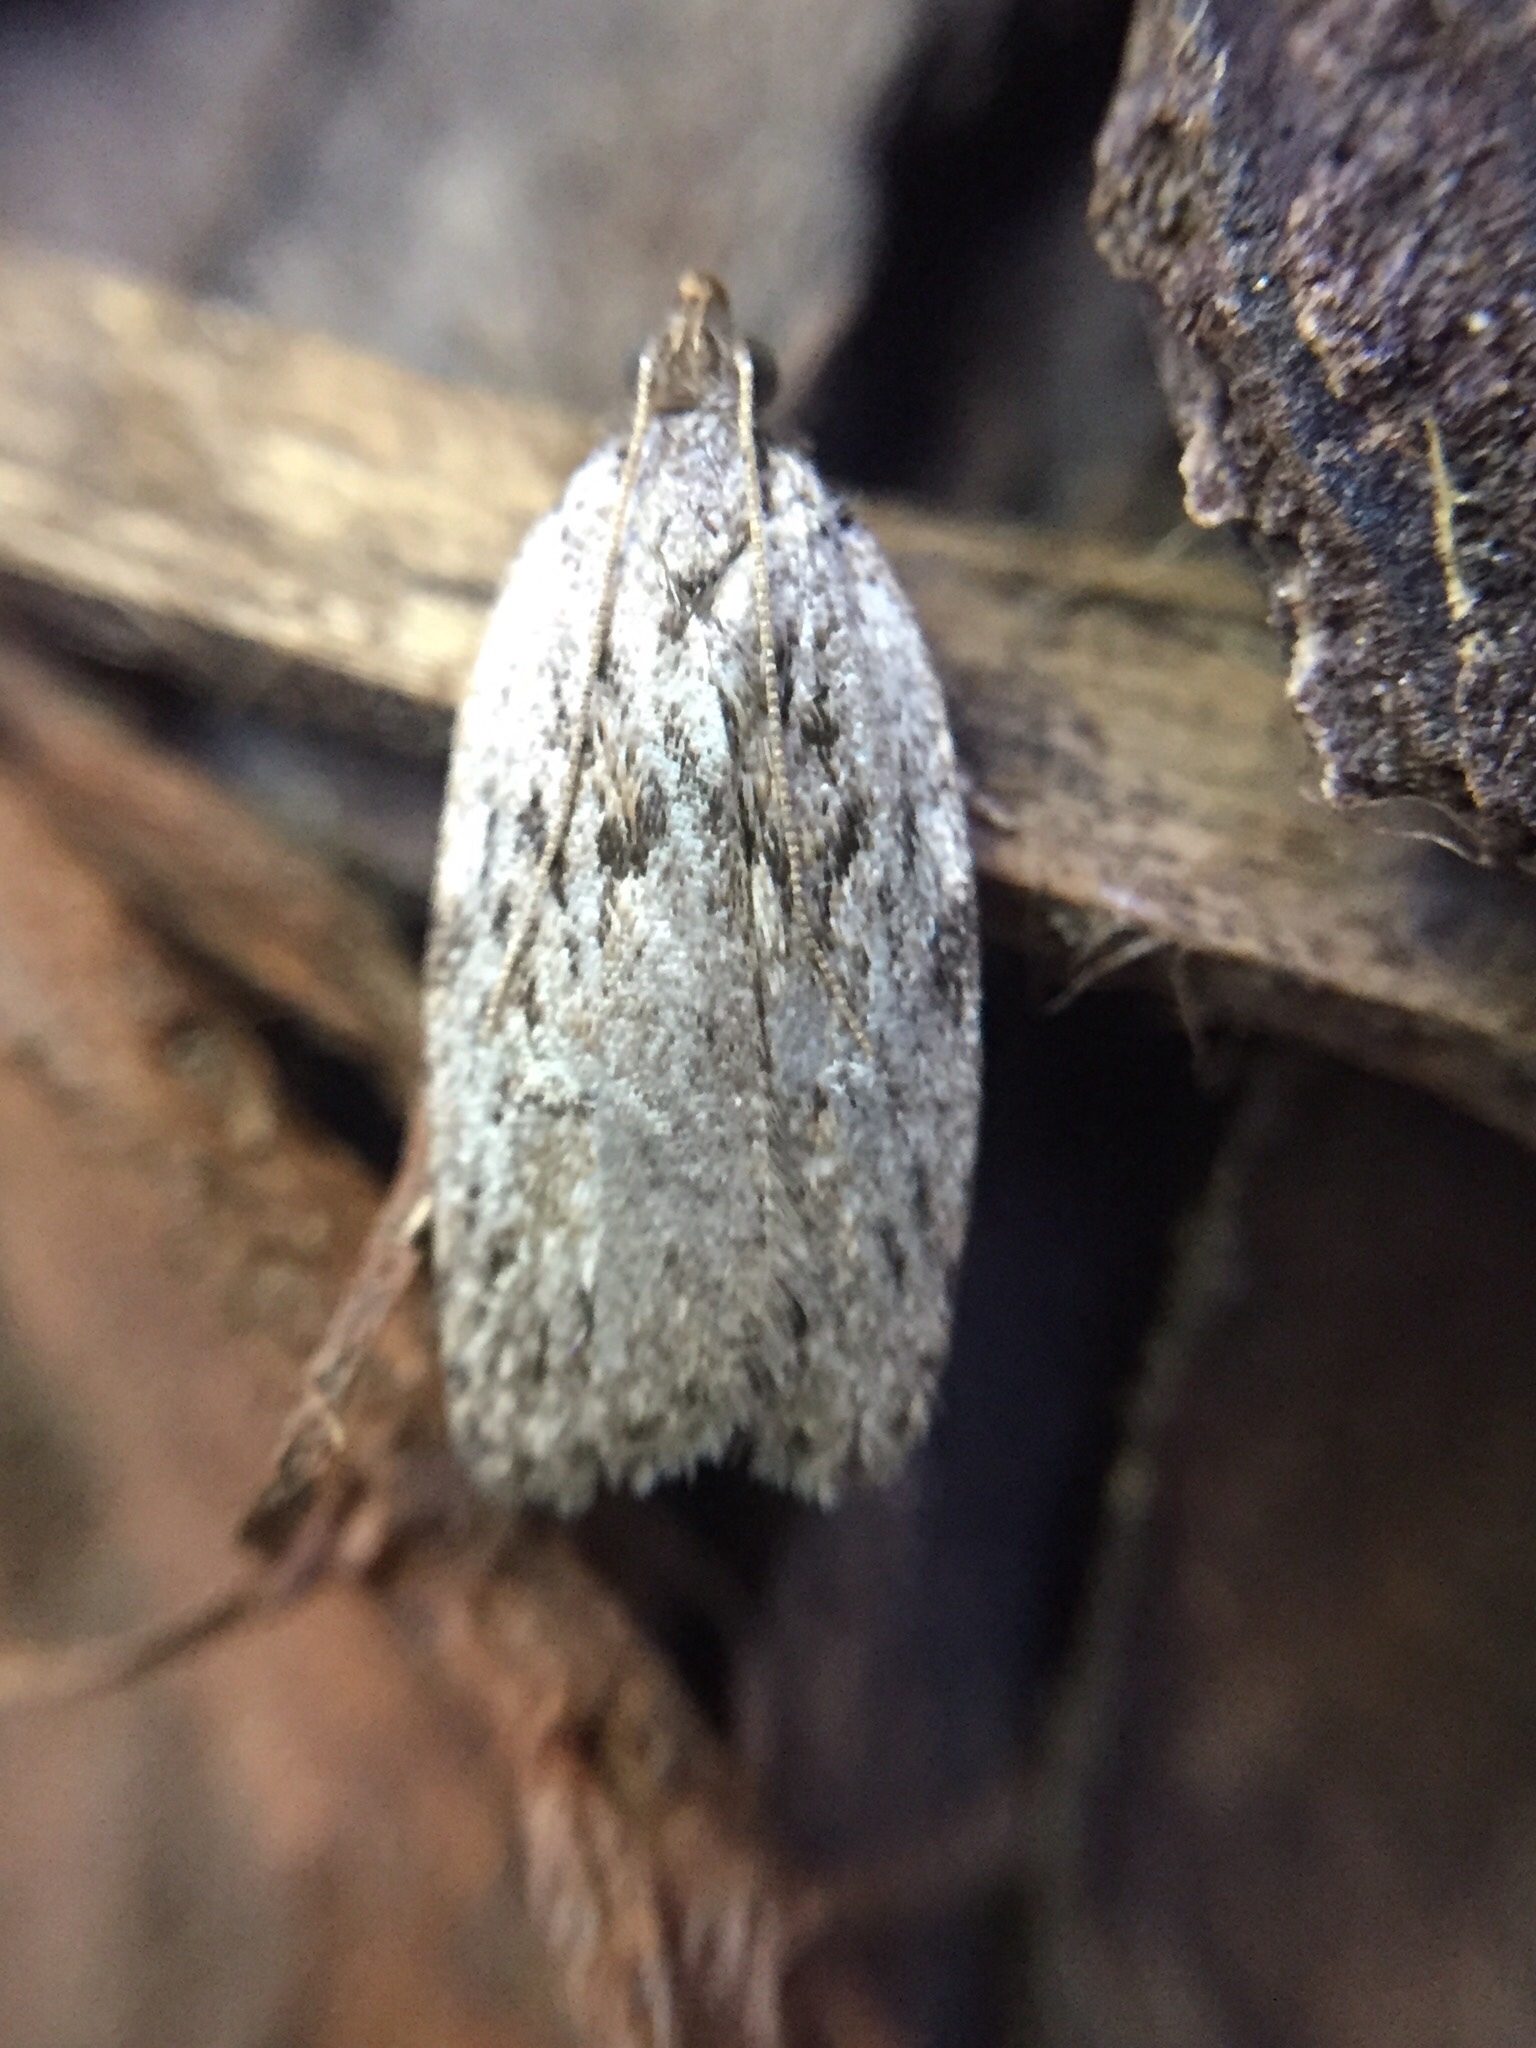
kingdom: Animalia
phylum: Arthropoda
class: Insecta
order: Lepidoptera
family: Depressariidae
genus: Phaeosaces
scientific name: Phaeosaces compsotypa
